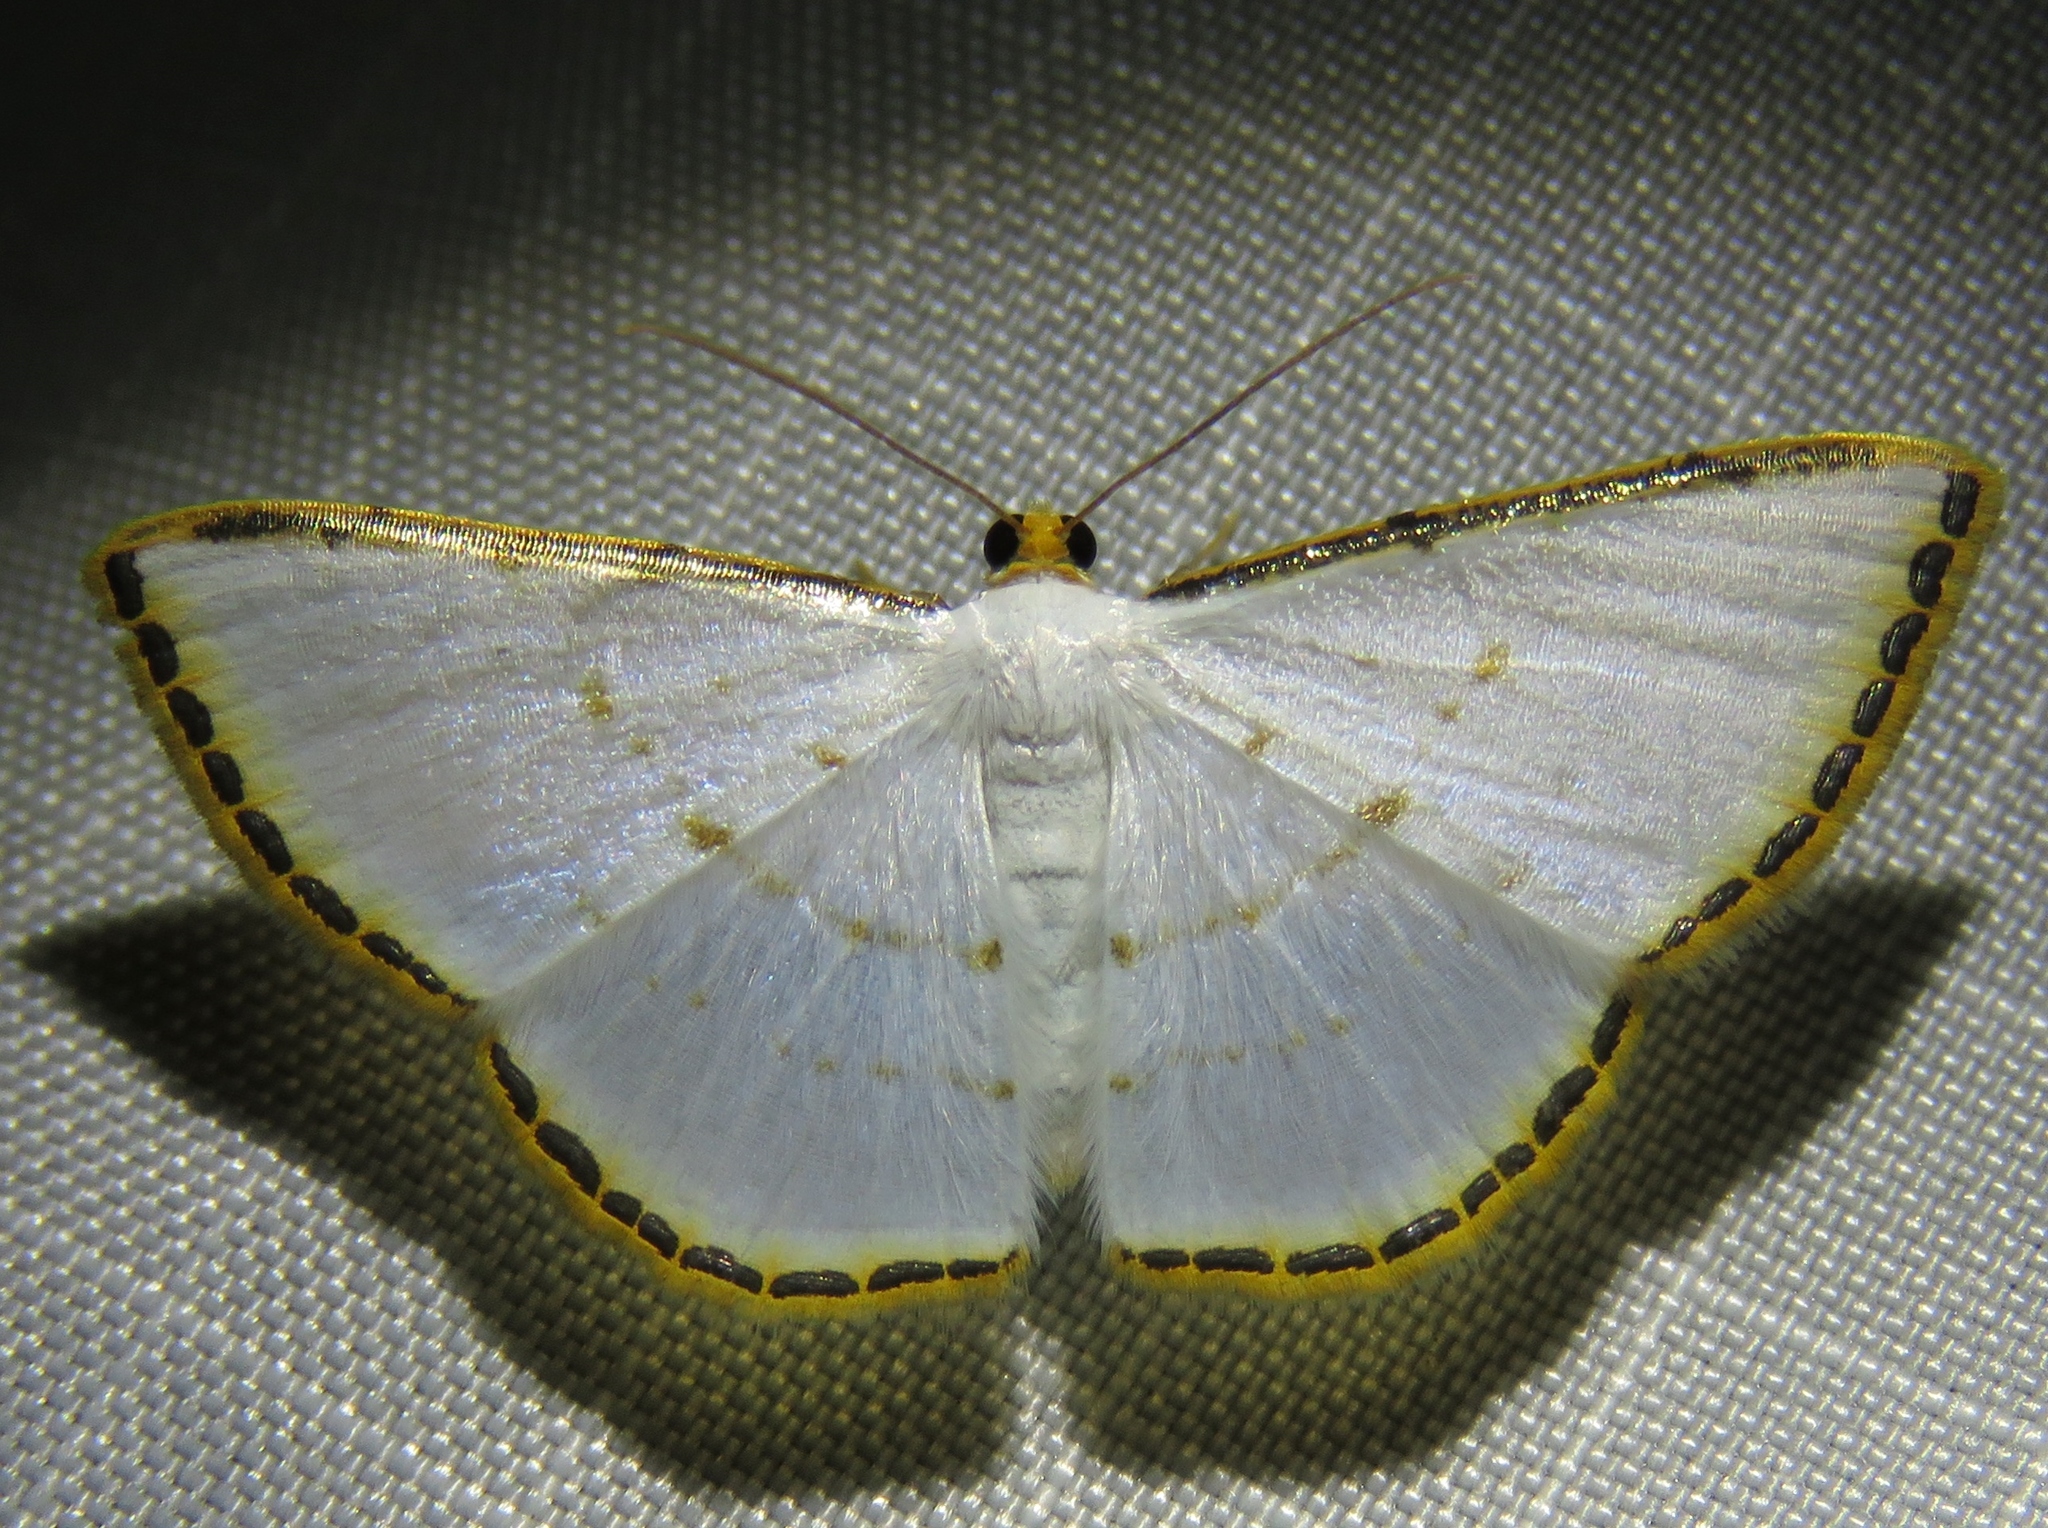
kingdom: Animalia
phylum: Arthropoda
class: Insecta
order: Lepidoptera
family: Geometridae
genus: Leuciris
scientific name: Leuciris fimbriaria
